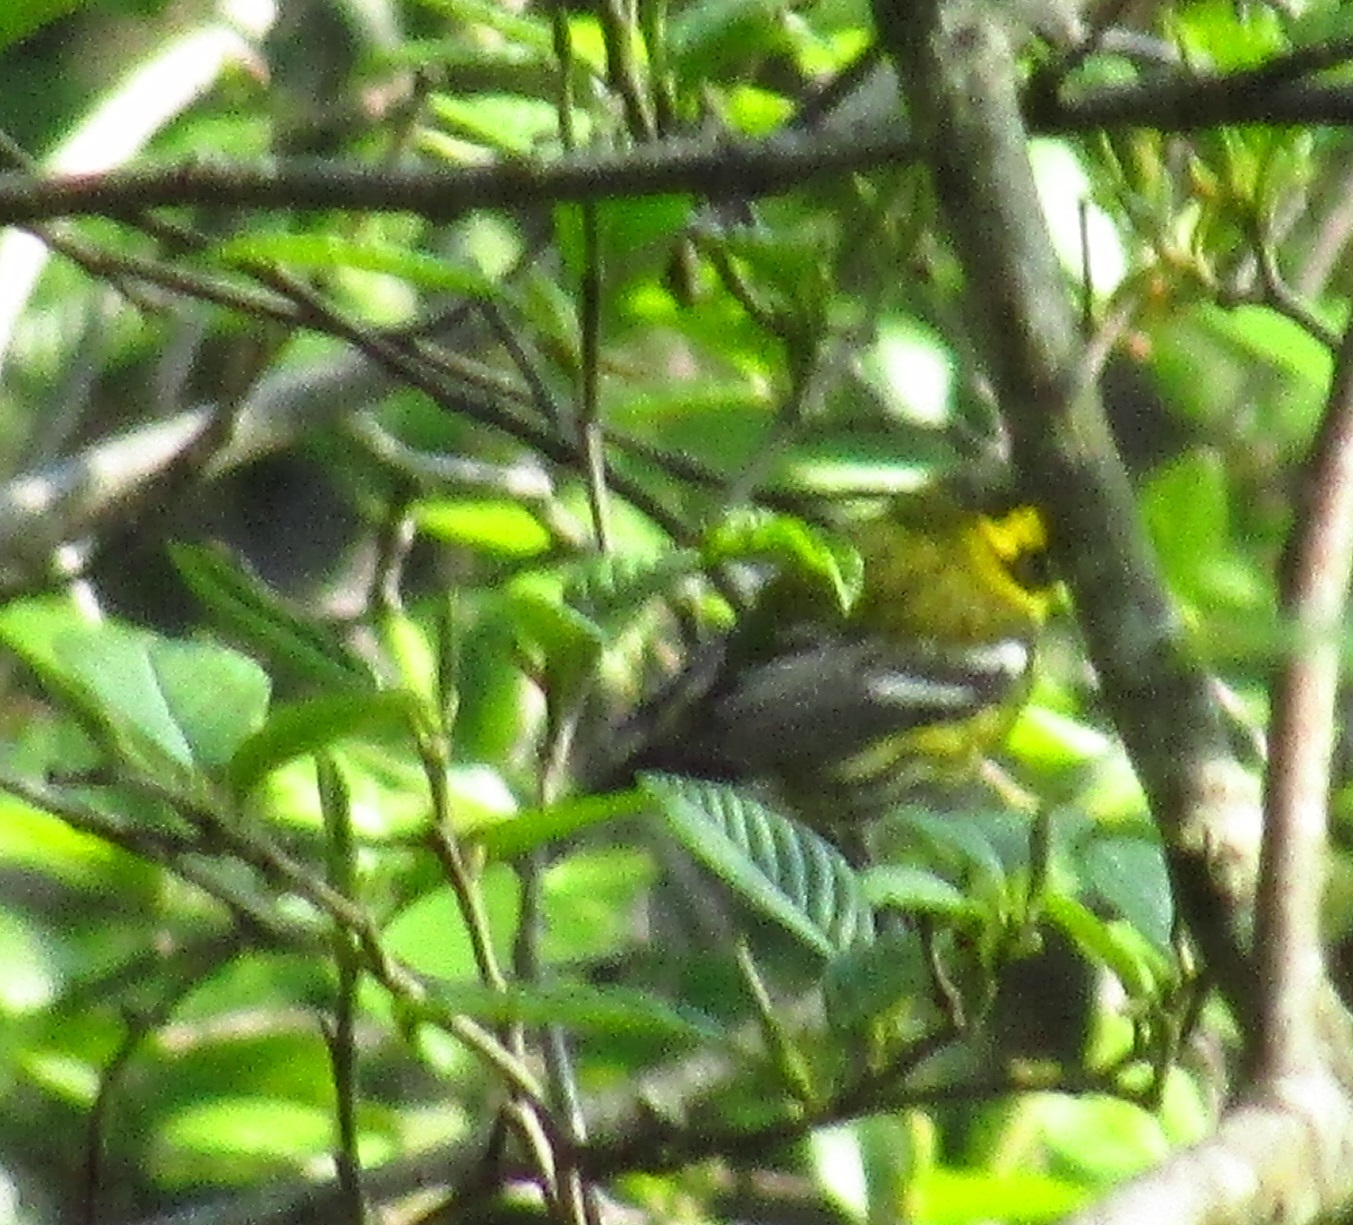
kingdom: Animalia
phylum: Chordata
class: Aves
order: Passeriformes
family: Parulidae
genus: Setophaga
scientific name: Setophaga townsendi
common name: Townsend's warbler
